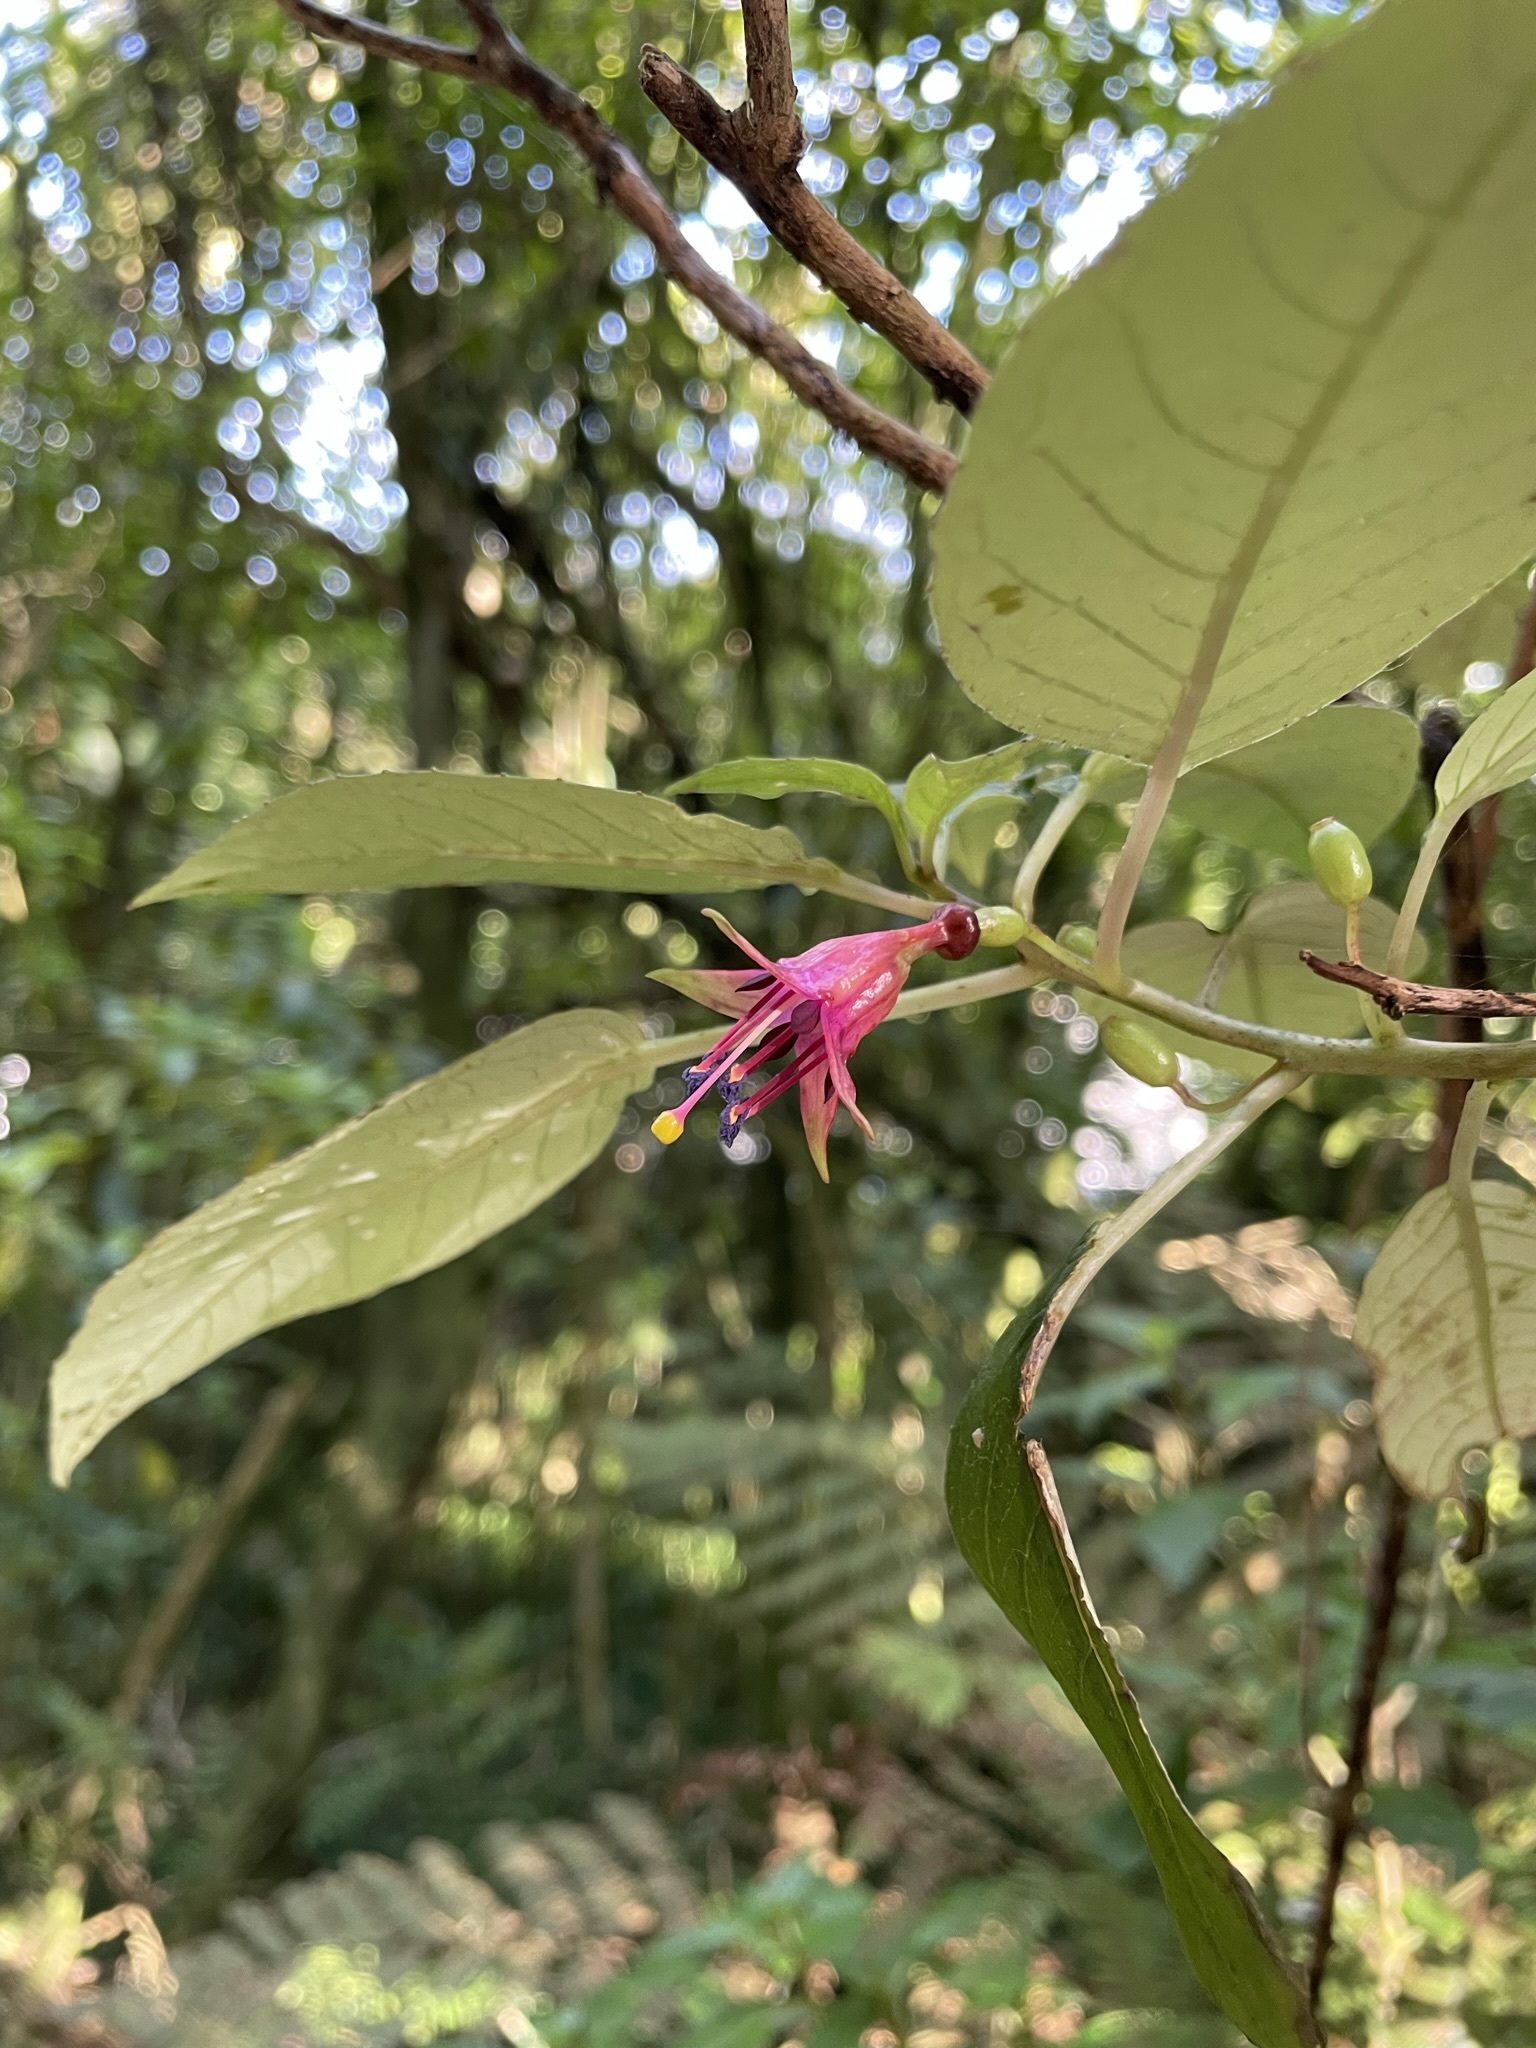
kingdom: Plantae
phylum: Tracheophyta
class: Magnoliopsida
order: Myrtales
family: Onagraceae
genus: Fuchsia
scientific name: Fuchsia excorticata
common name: Tree fuchsia
